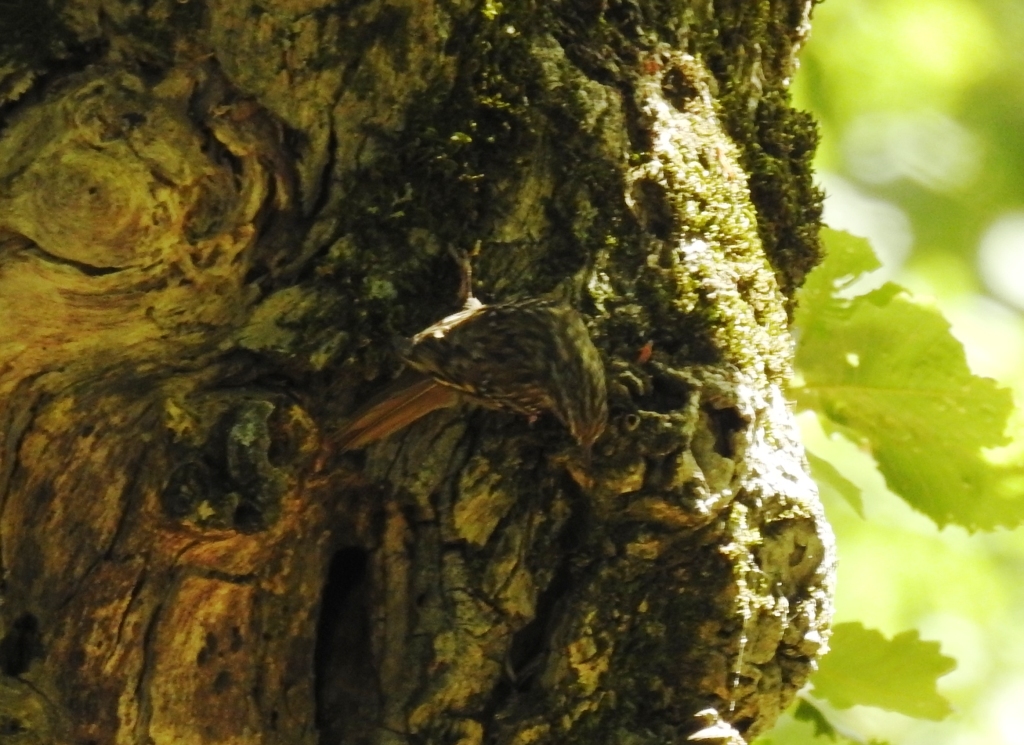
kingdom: Animalia
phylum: Chordata
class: Aves
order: Passeriformes
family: Certhiidae
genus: Certhia
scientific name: Certhia brachydactyla
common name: Short-toed treecreeper
